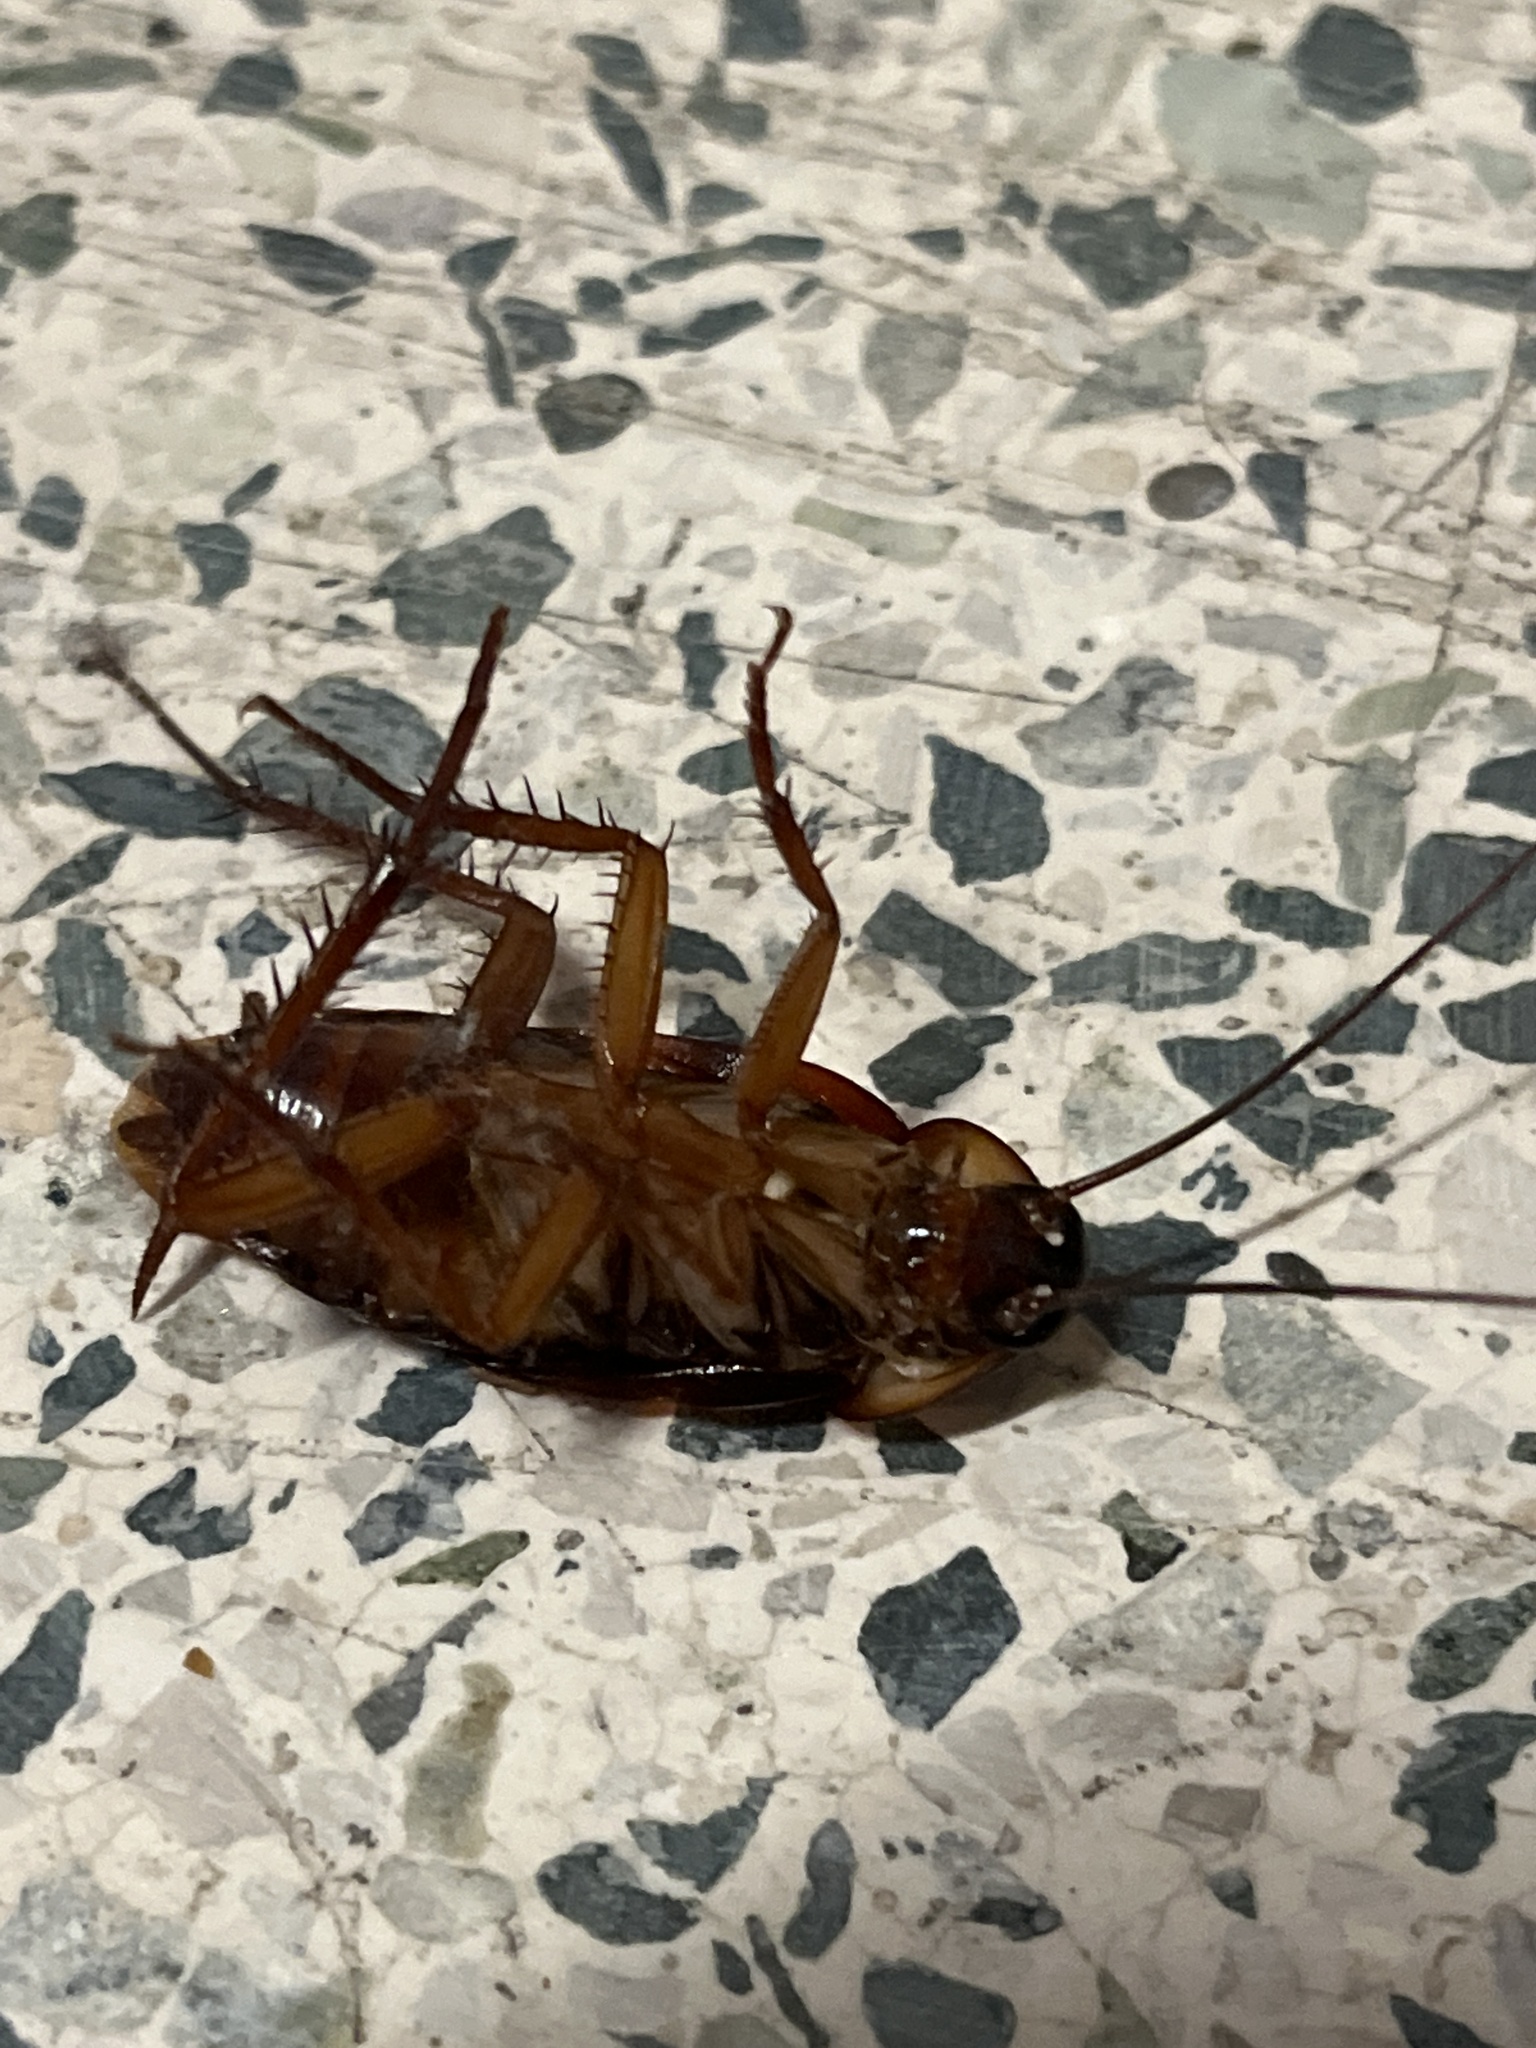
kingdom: Animalia
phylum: Arthropoda
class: Insecta
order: Blattodea
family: Blattidae
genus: Periplaneta
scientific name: Periplaneta americana
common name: American cockroach
